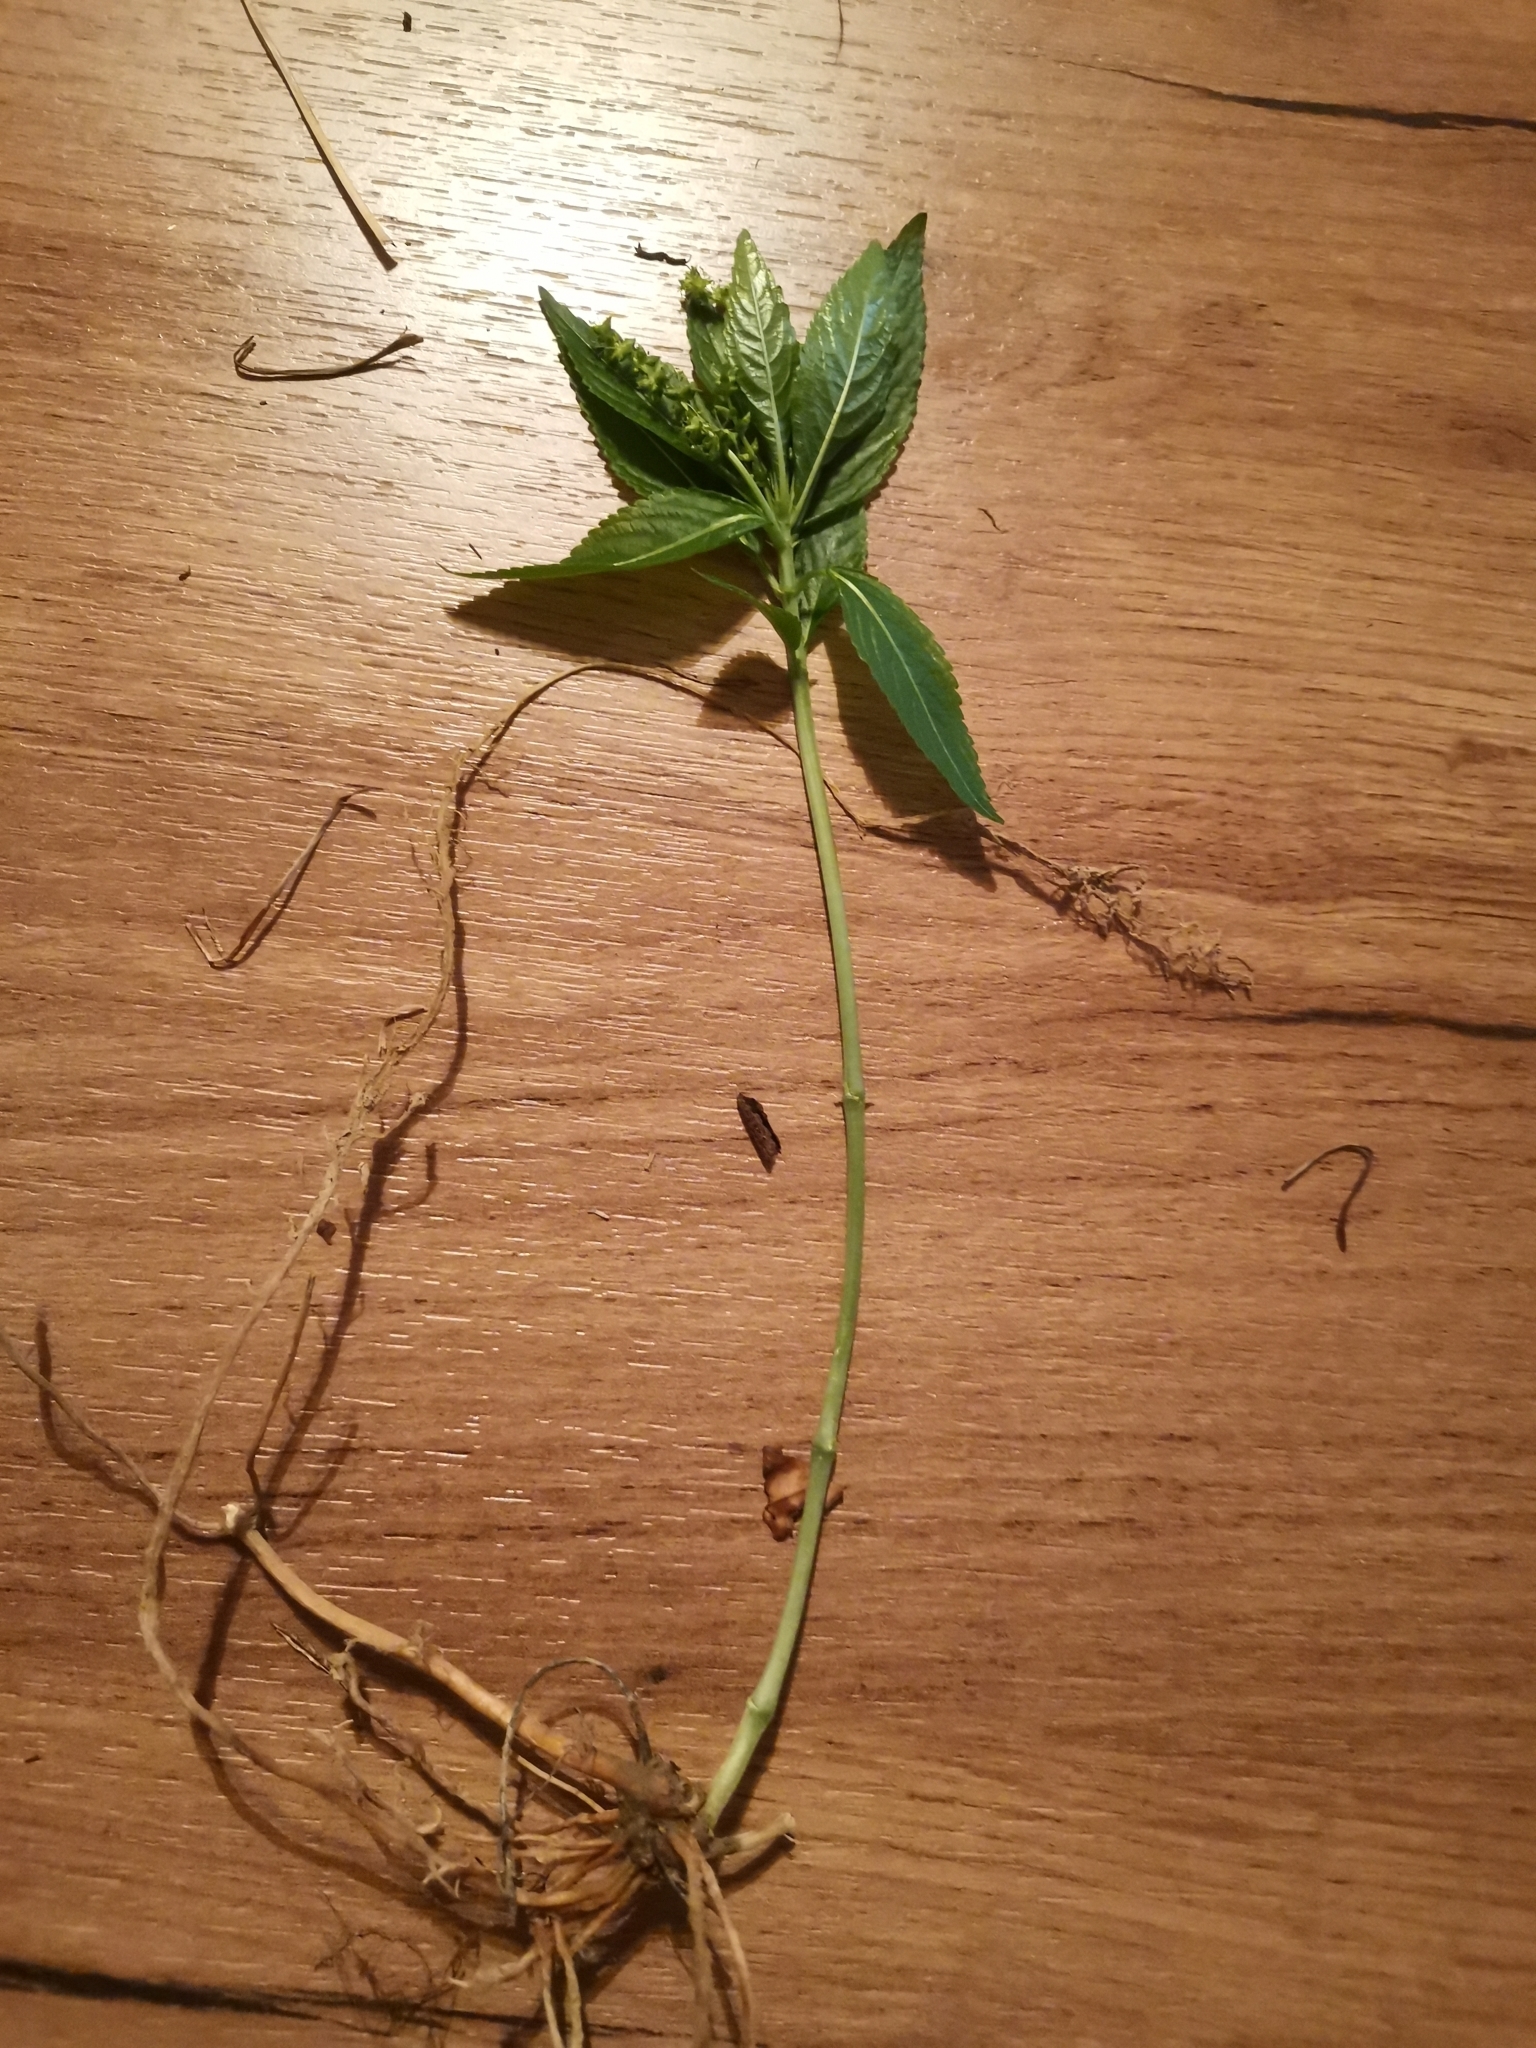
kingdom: Plantae
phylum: Tracheophyta
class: Magnoliopsida
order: Malpighiales
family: Euphorbiaceae
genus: Mercurialis
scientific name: Mercurialis perennis
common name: Dog mercury
